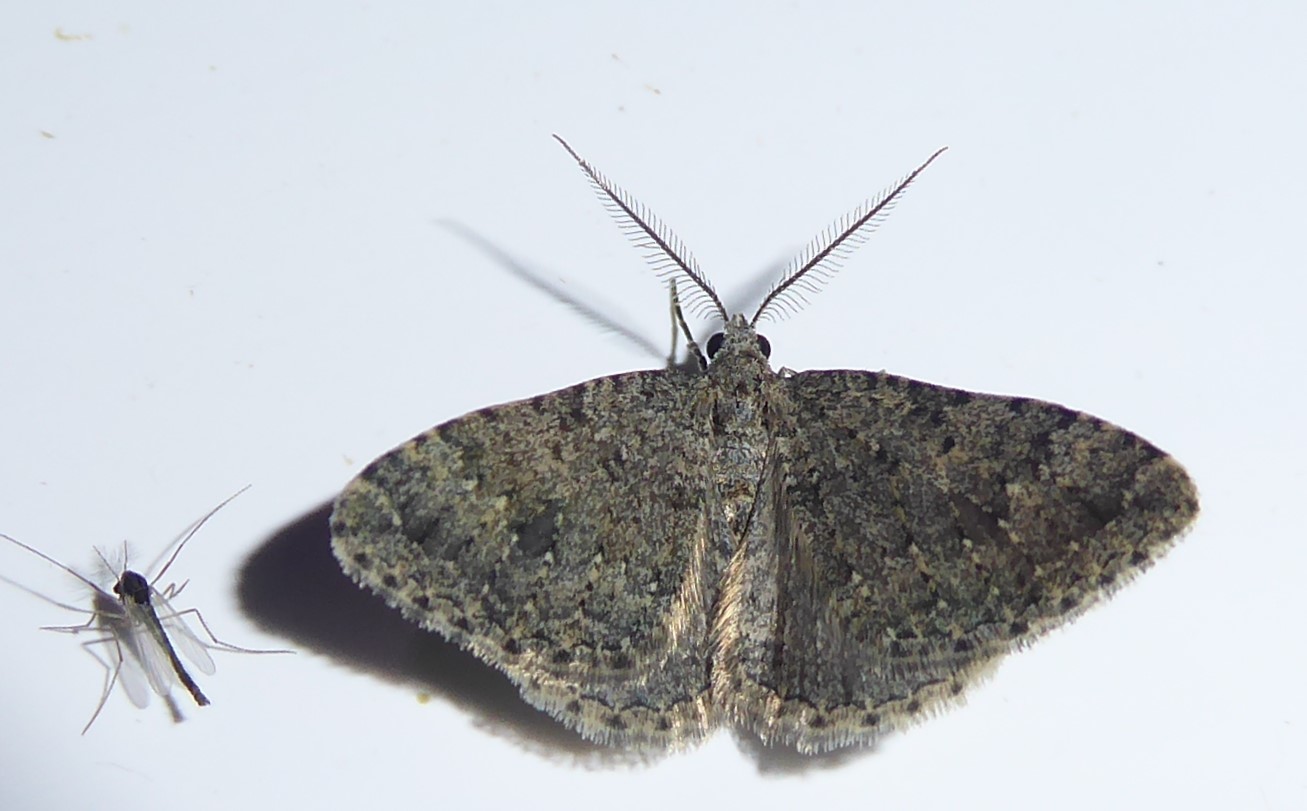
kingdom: Animalia
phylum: Arthropoda
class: Insecta
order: Lepidoptera
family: Geometridae
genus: Helastia
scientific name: Helastia corcularia
